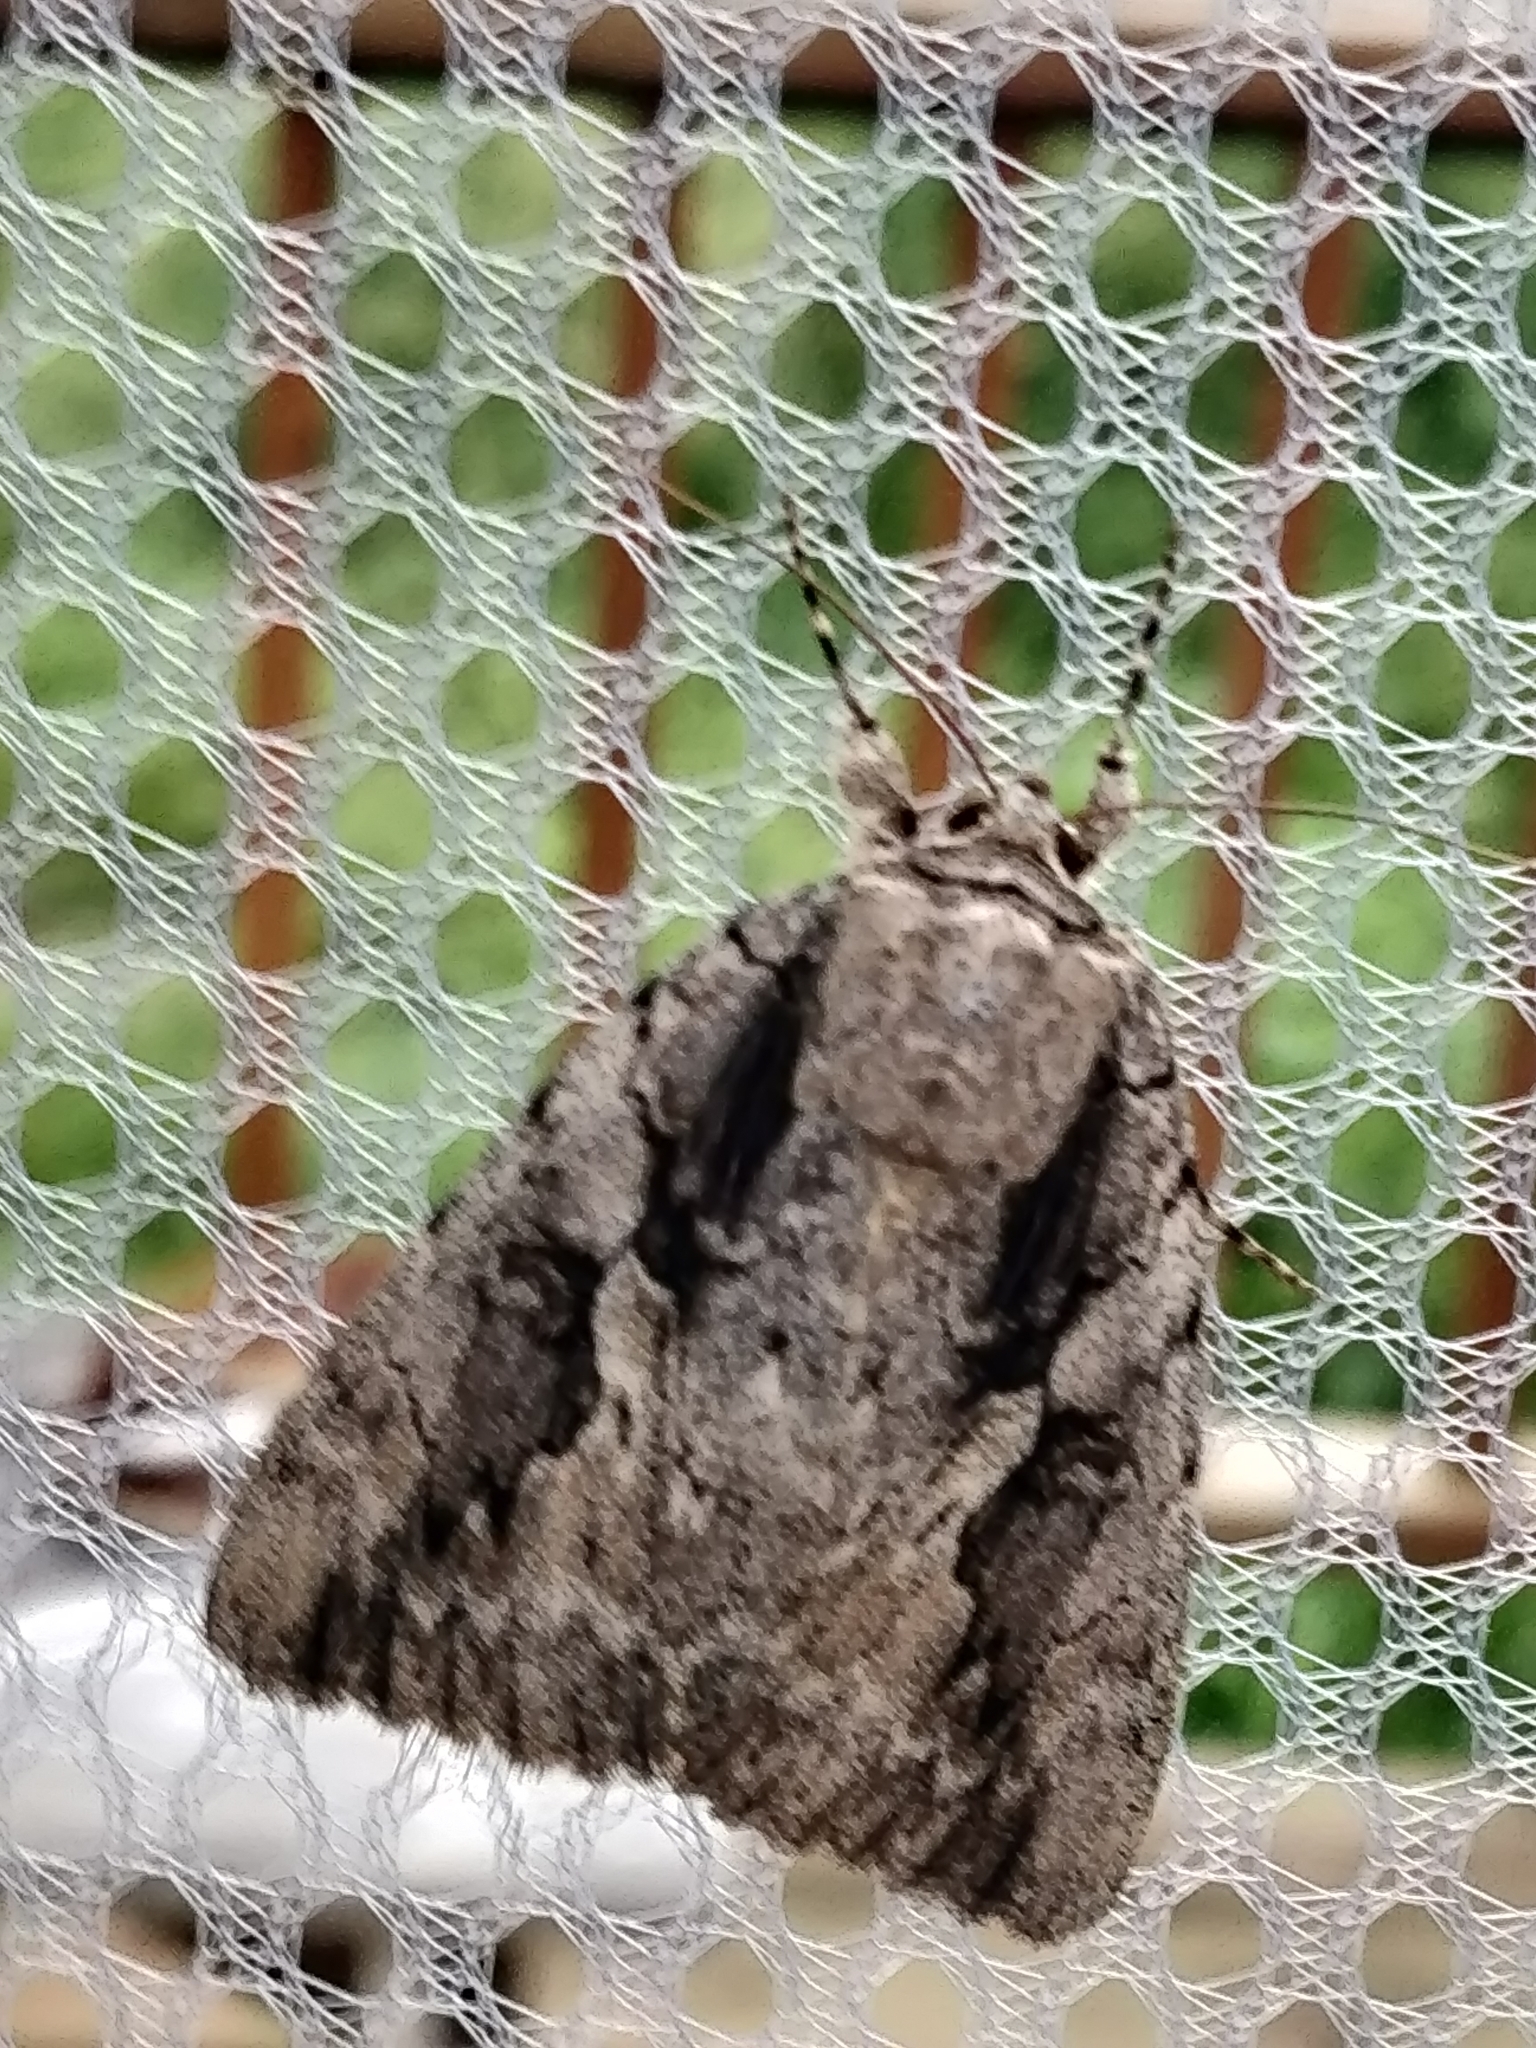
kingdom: Animalia
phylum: Arthropoda
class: Insecta
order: Lepidoptera
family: Erebidae
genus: Catocala
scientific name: Catocala amatrix
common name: Sweetheart underwing
